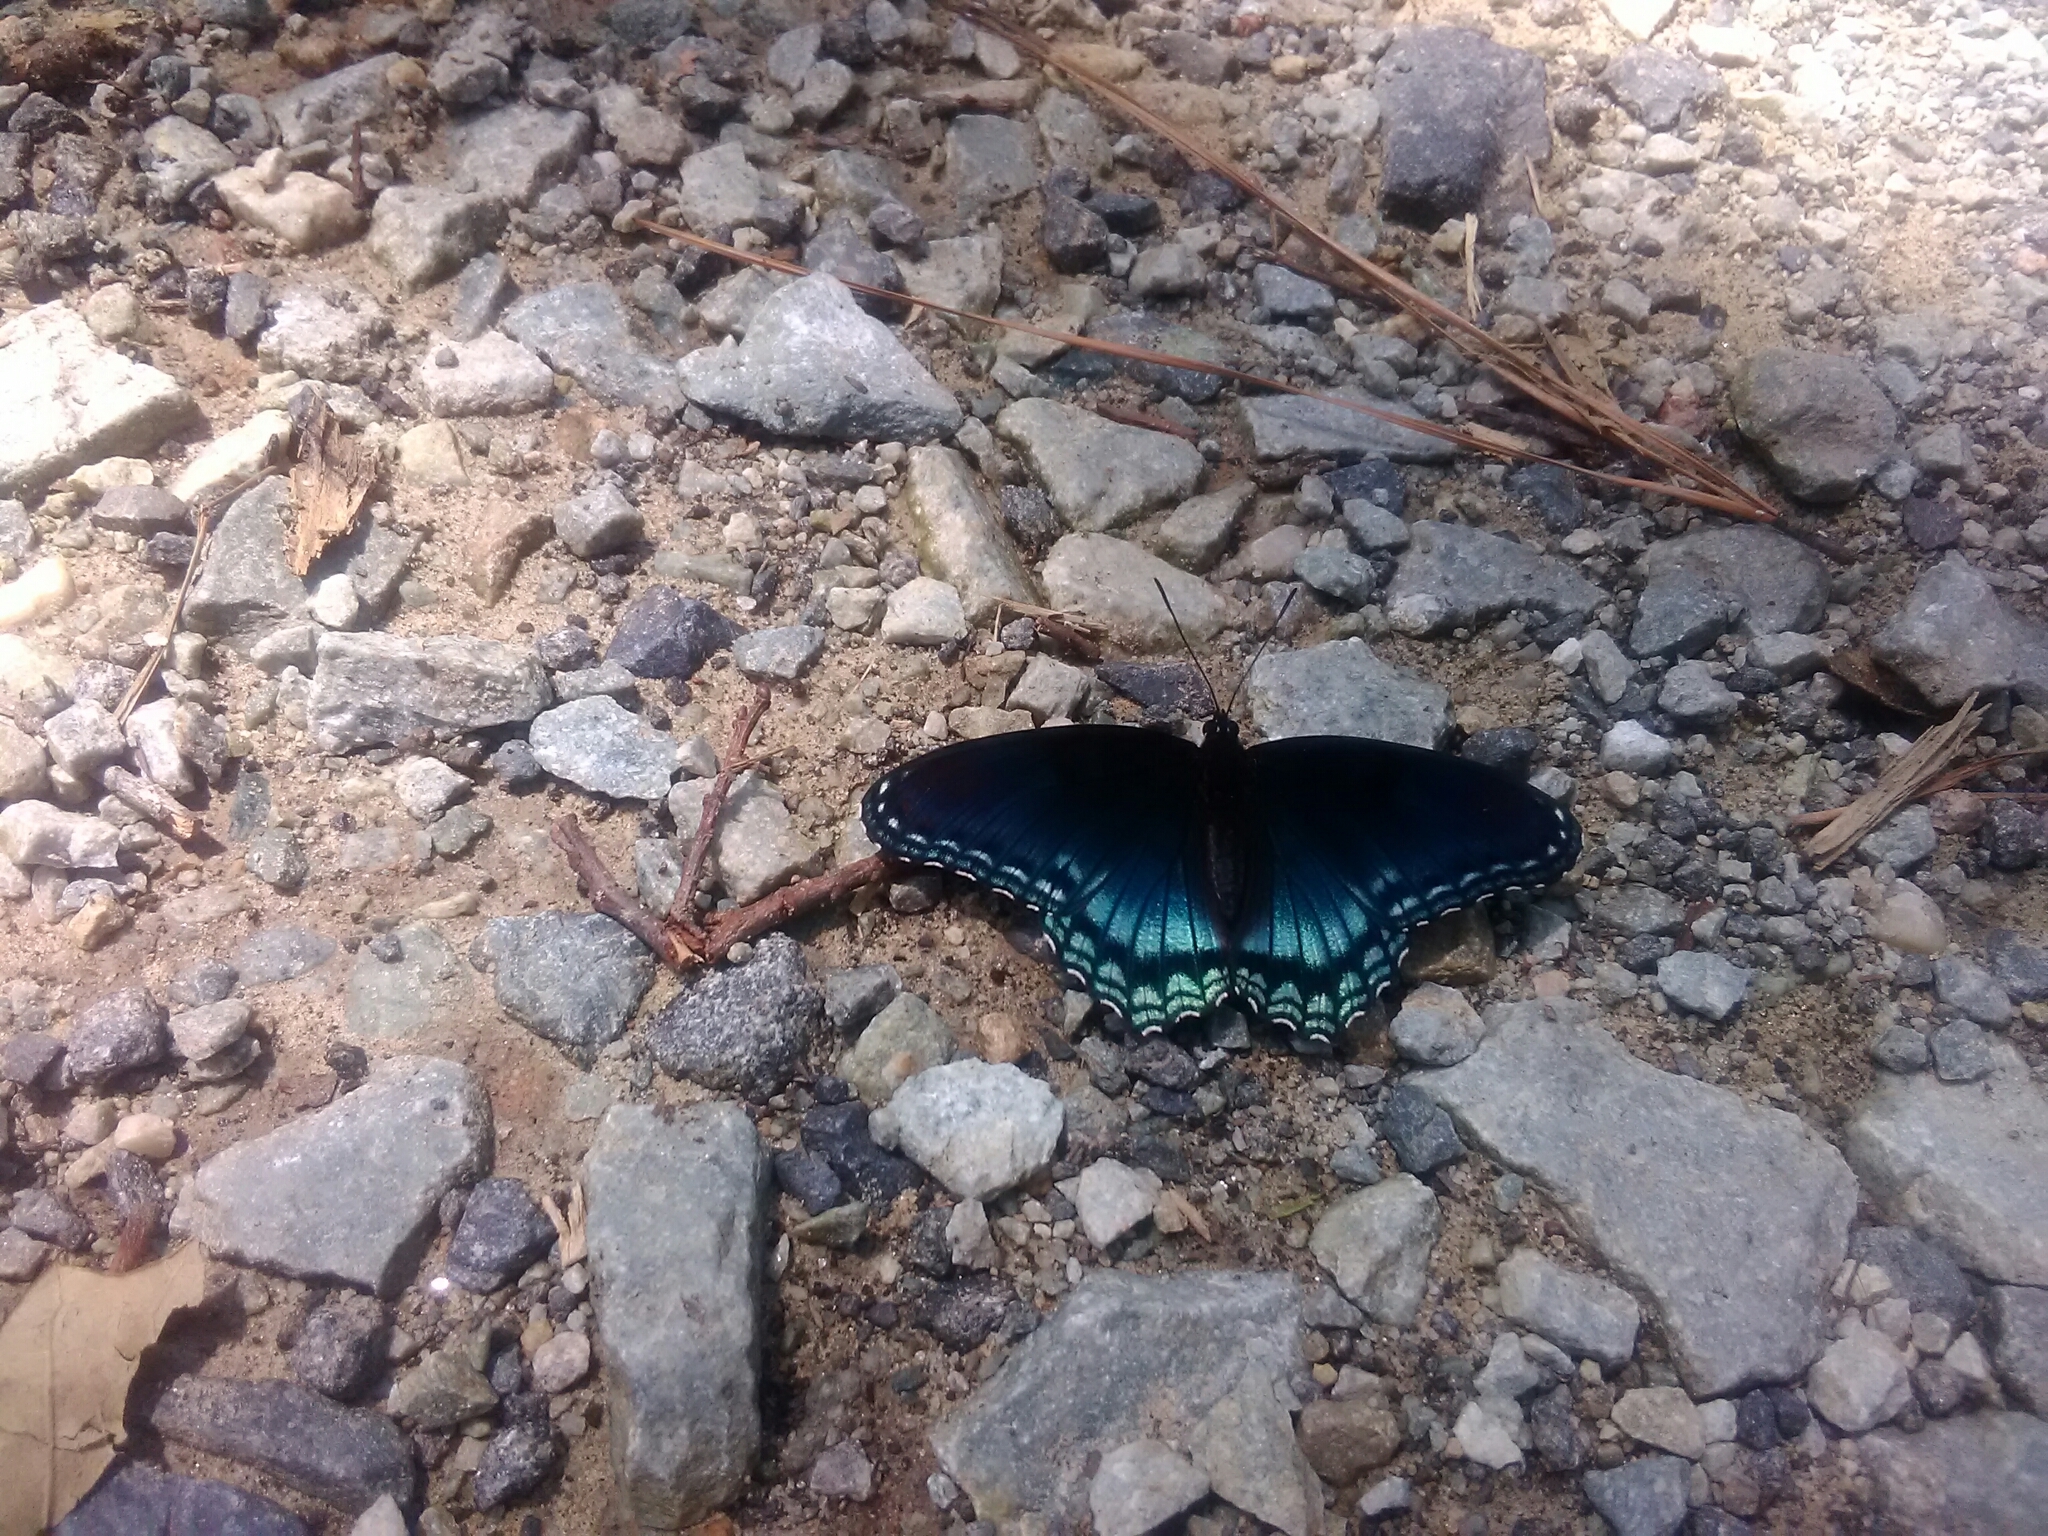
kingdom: Animalia
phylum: Arthropoda
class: Insecta
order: Lepidoptera
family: Nymphalidae
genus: Limenitis
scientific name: Limenitis astyanax
